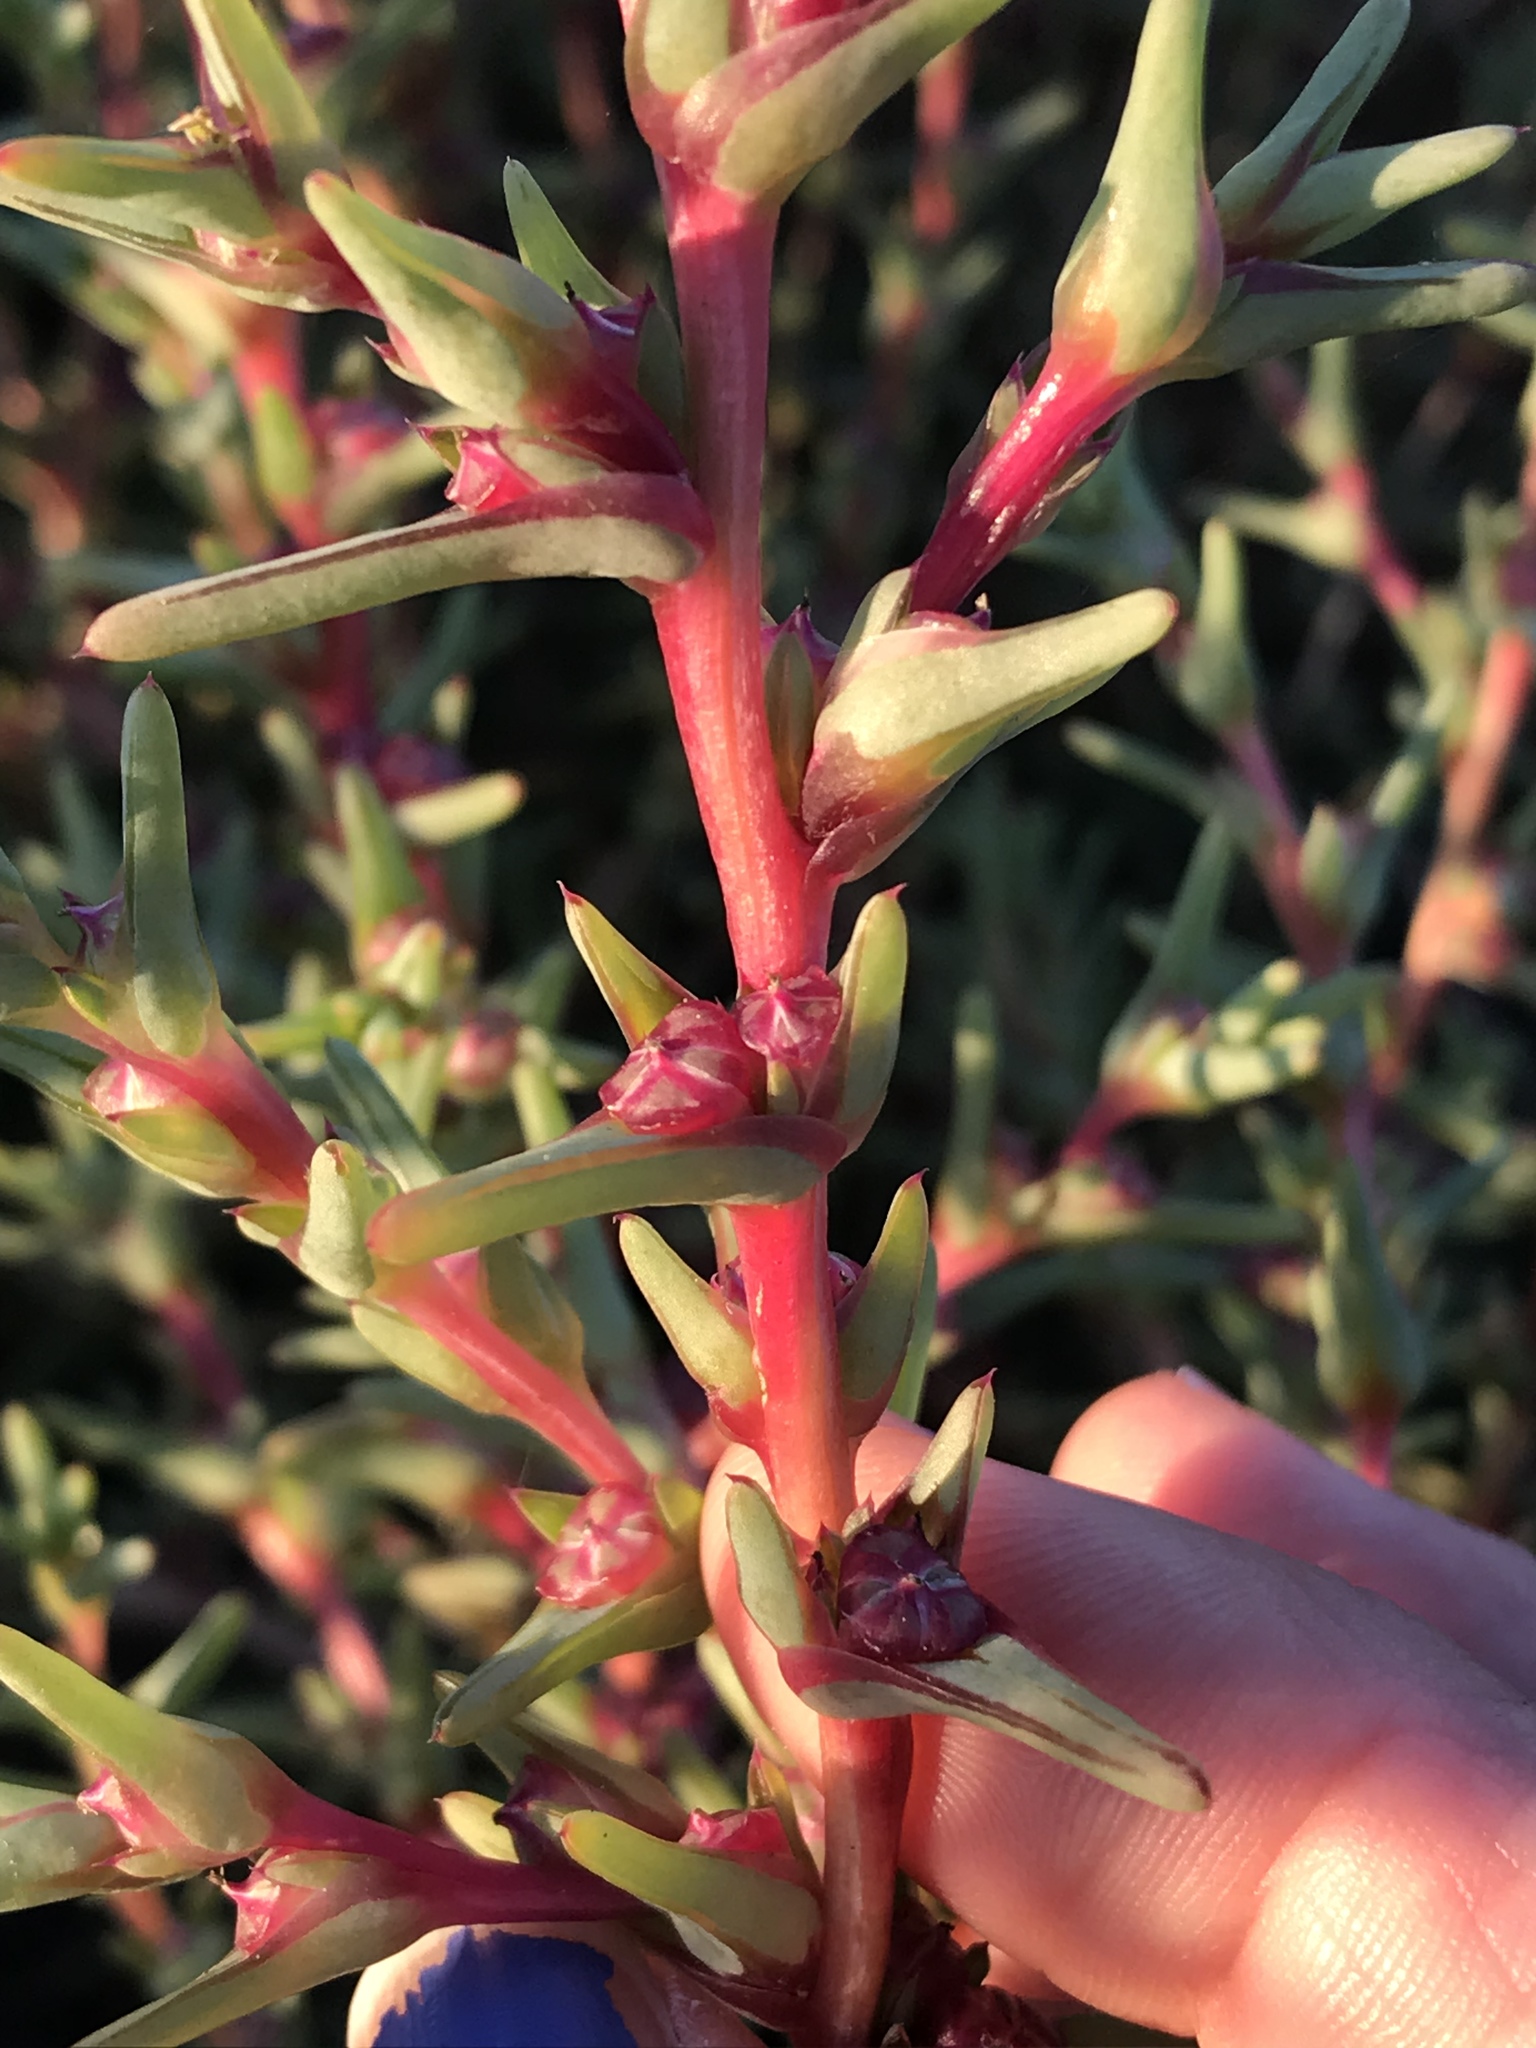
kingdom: Plantae
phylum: Tracheophyta
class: Magnoliopsida
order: Caryophyllales
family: Amaranthaceae
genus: Salsola
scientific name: Salsola soda
